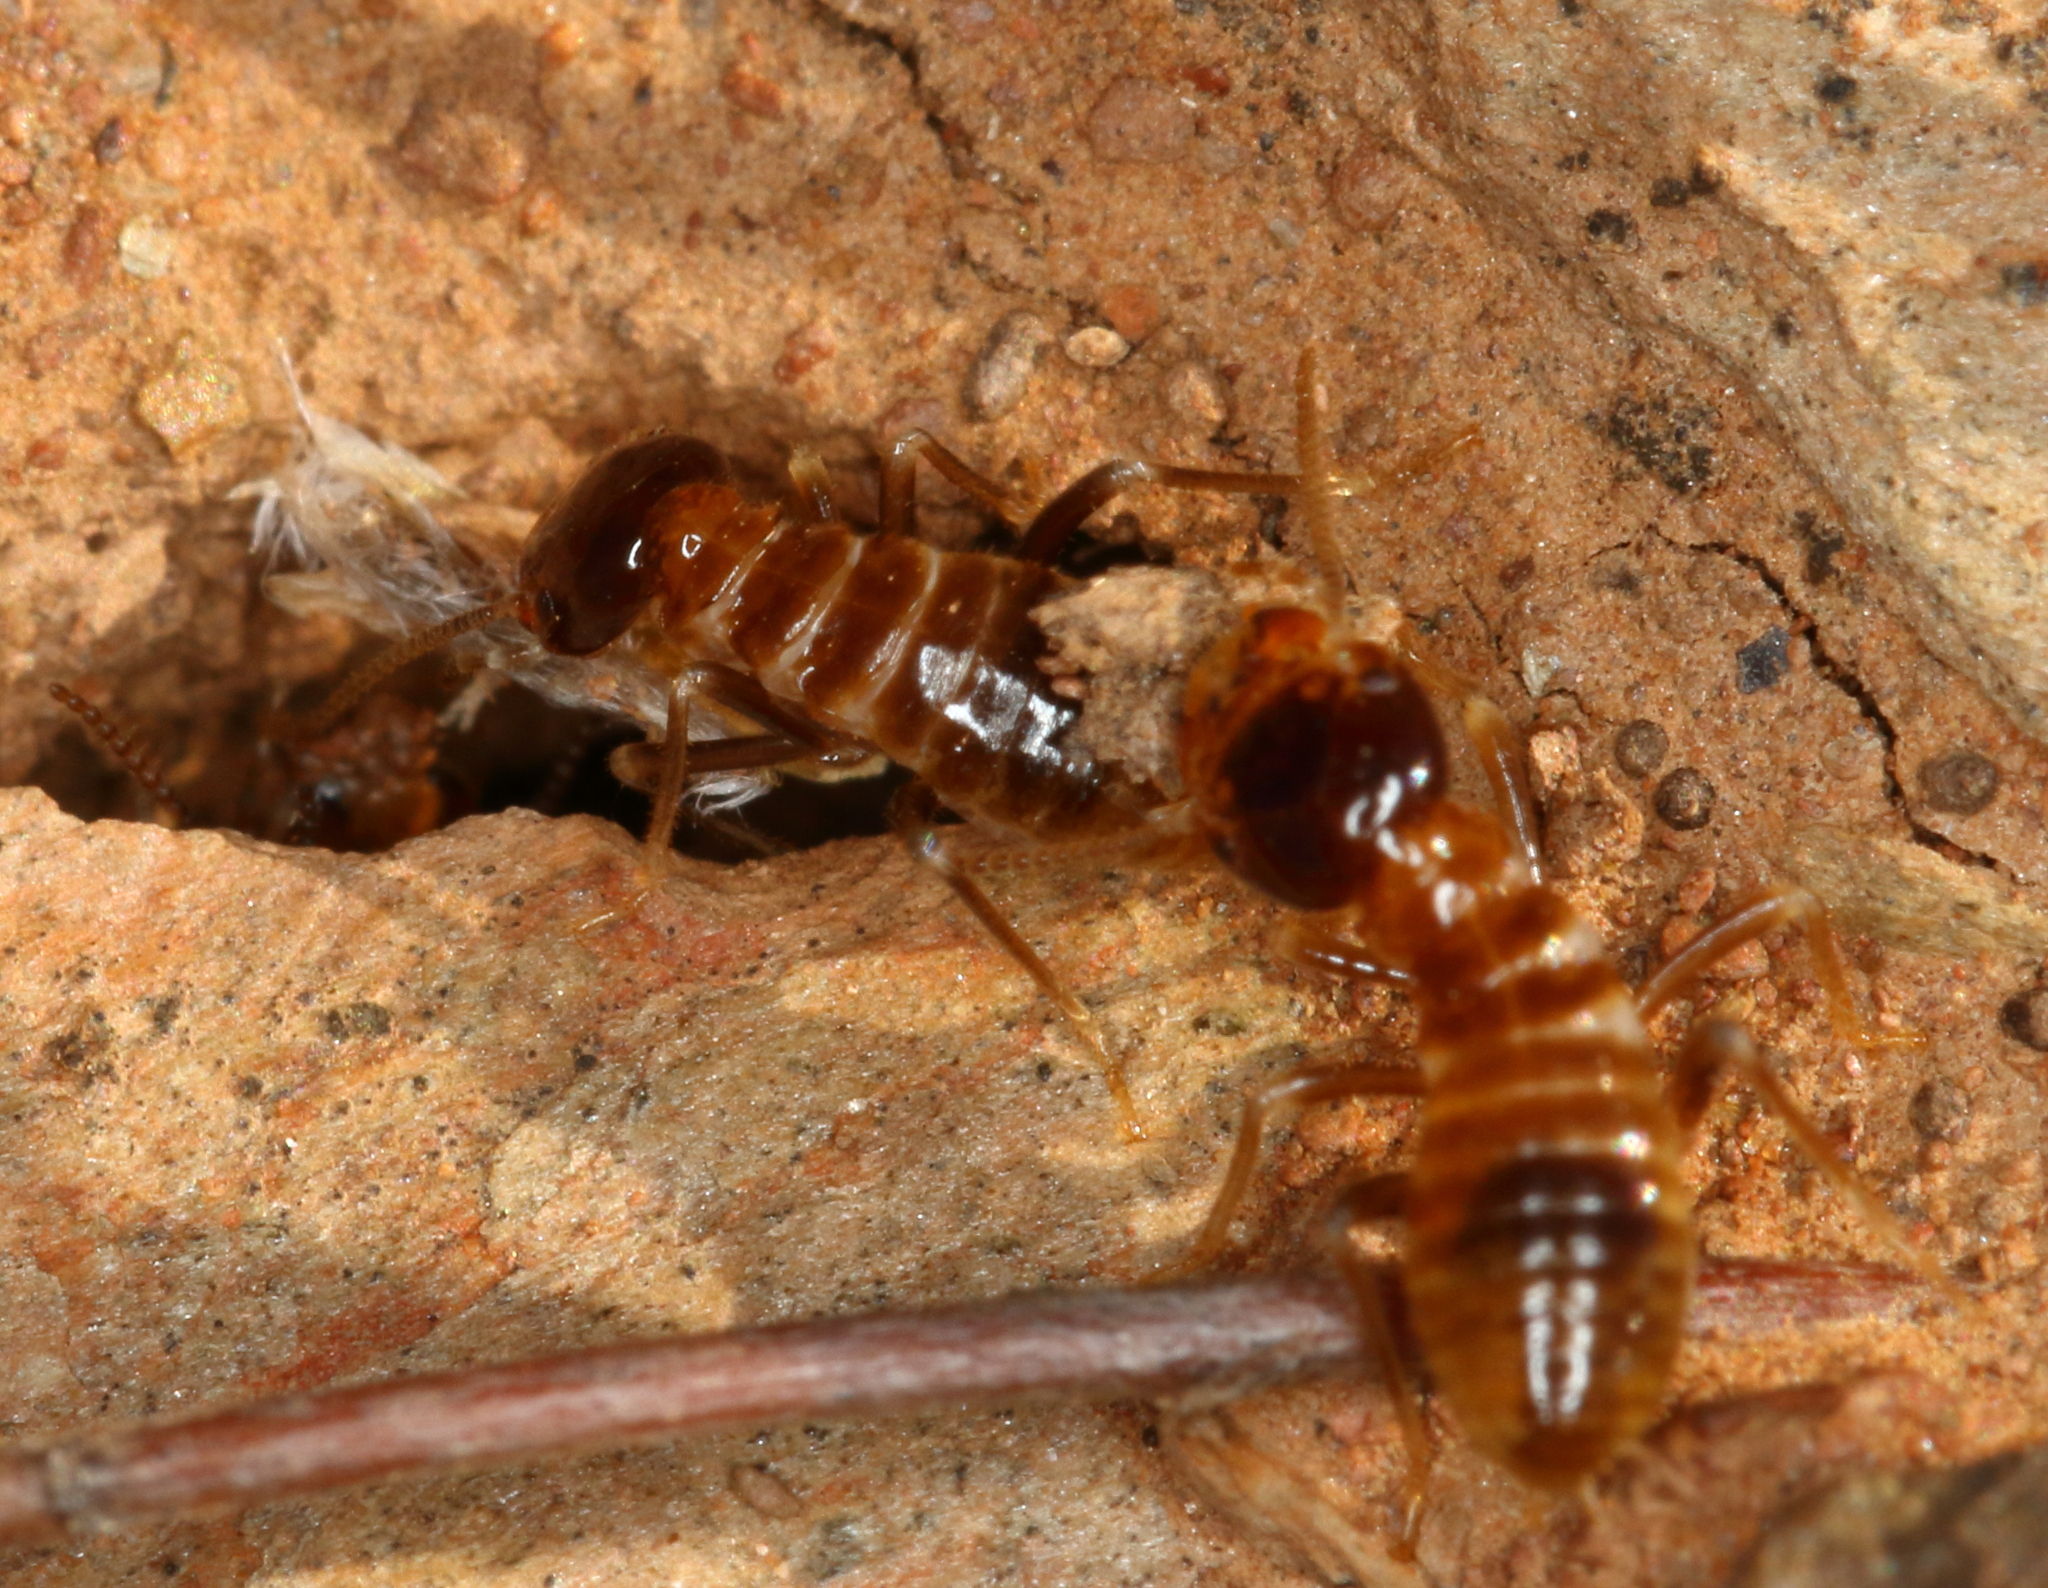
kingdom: Animalia
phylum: Arthropoda
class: Insecta
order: Blattodea
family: Hodotermitidae
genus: Microhodotermes
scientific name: Microhodotermes viator
